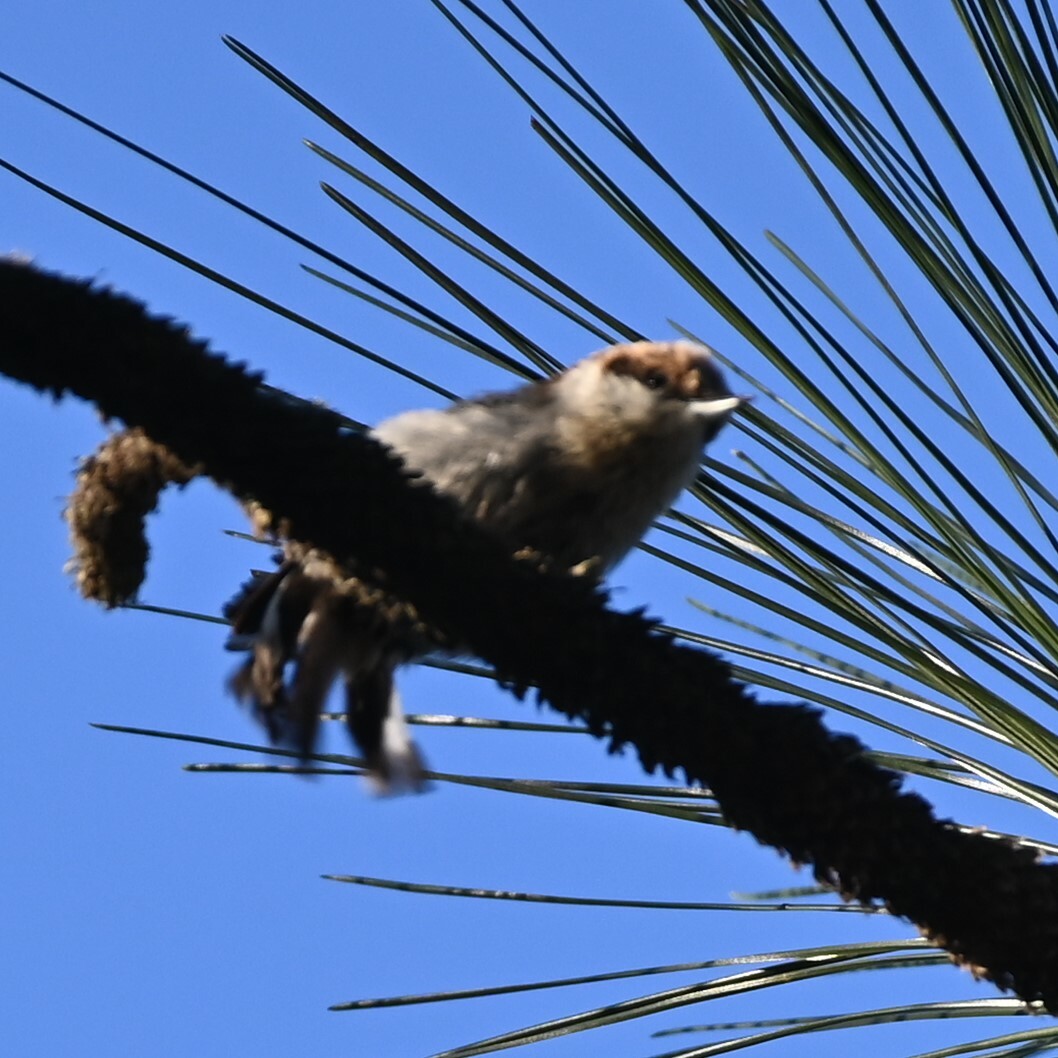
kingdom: Animalia
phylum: Chordata
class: Aves
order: Passeriformes
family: Sittidae
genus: Sitta
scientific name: Sitta pusilla
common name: Brown-headed nuthatch
